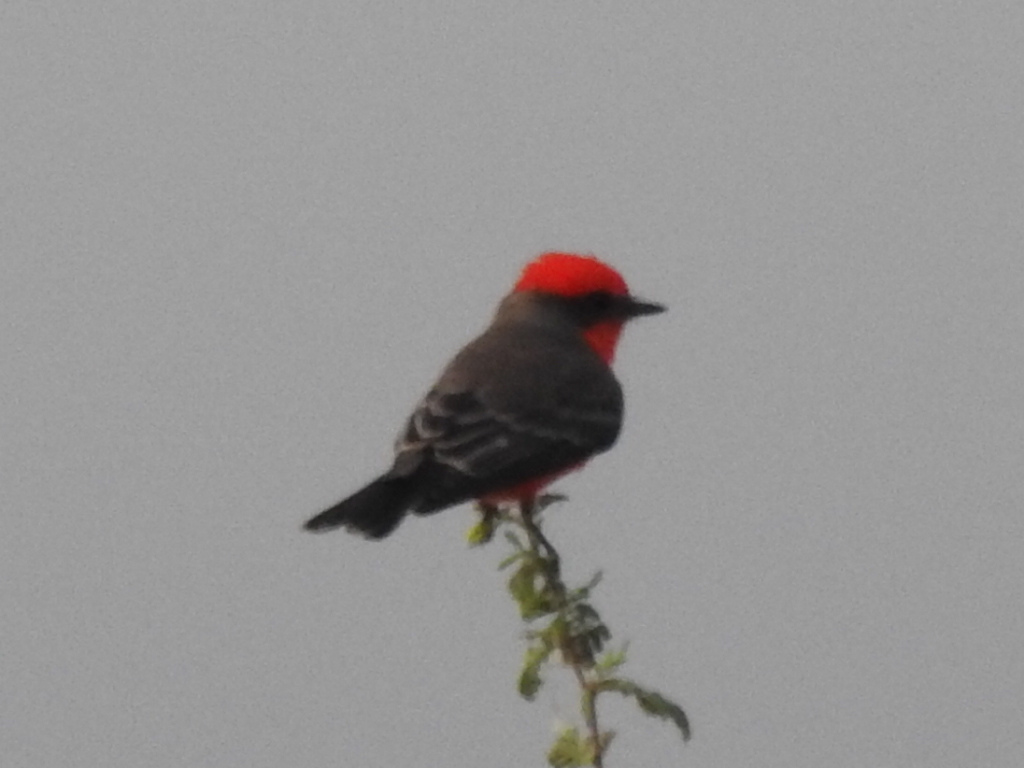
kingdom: Animalia
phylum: Chordata
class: Aves
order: Passeriformes
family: Tyrannidae
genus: Pyrocephalus
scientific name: Pyrocephalus rubinus
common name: Vermilion flycatcher
